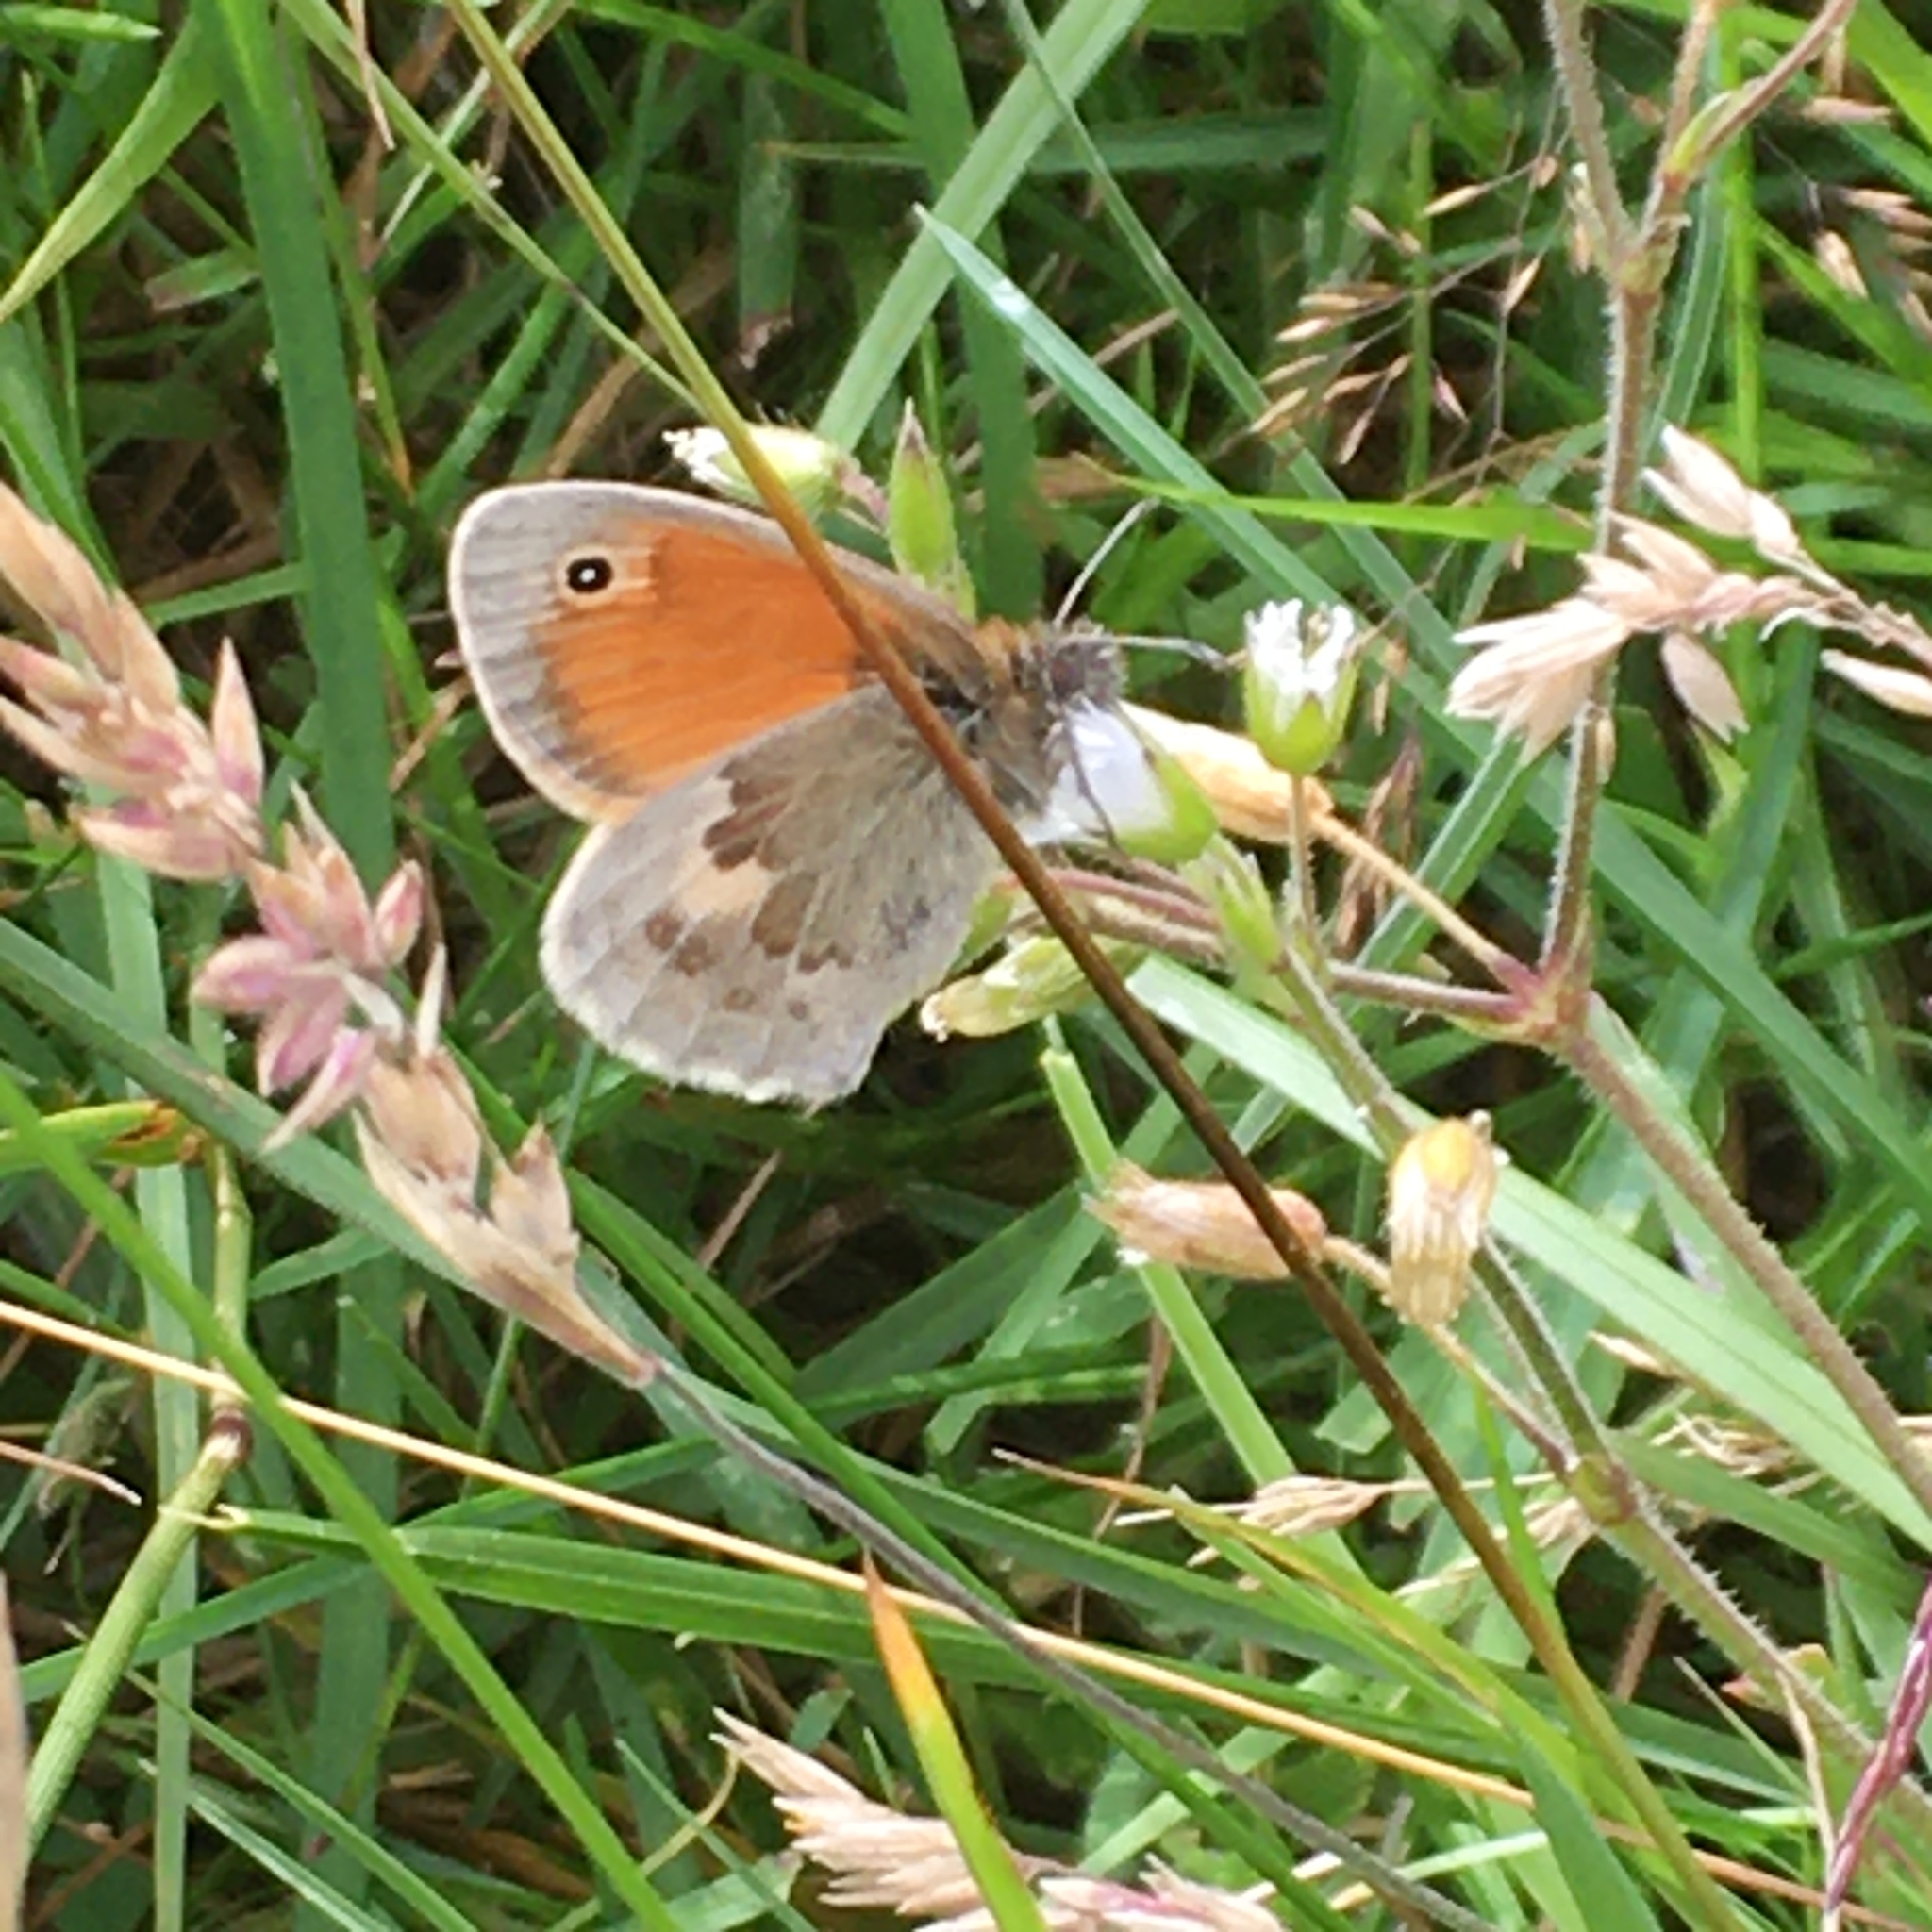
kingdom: Animalia
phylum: Arthropoda
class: Insecta
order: Lepidoptera
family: Nymphalidae
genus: Coenonympha
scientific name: Coenonympha pamphilus
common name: Small heath
